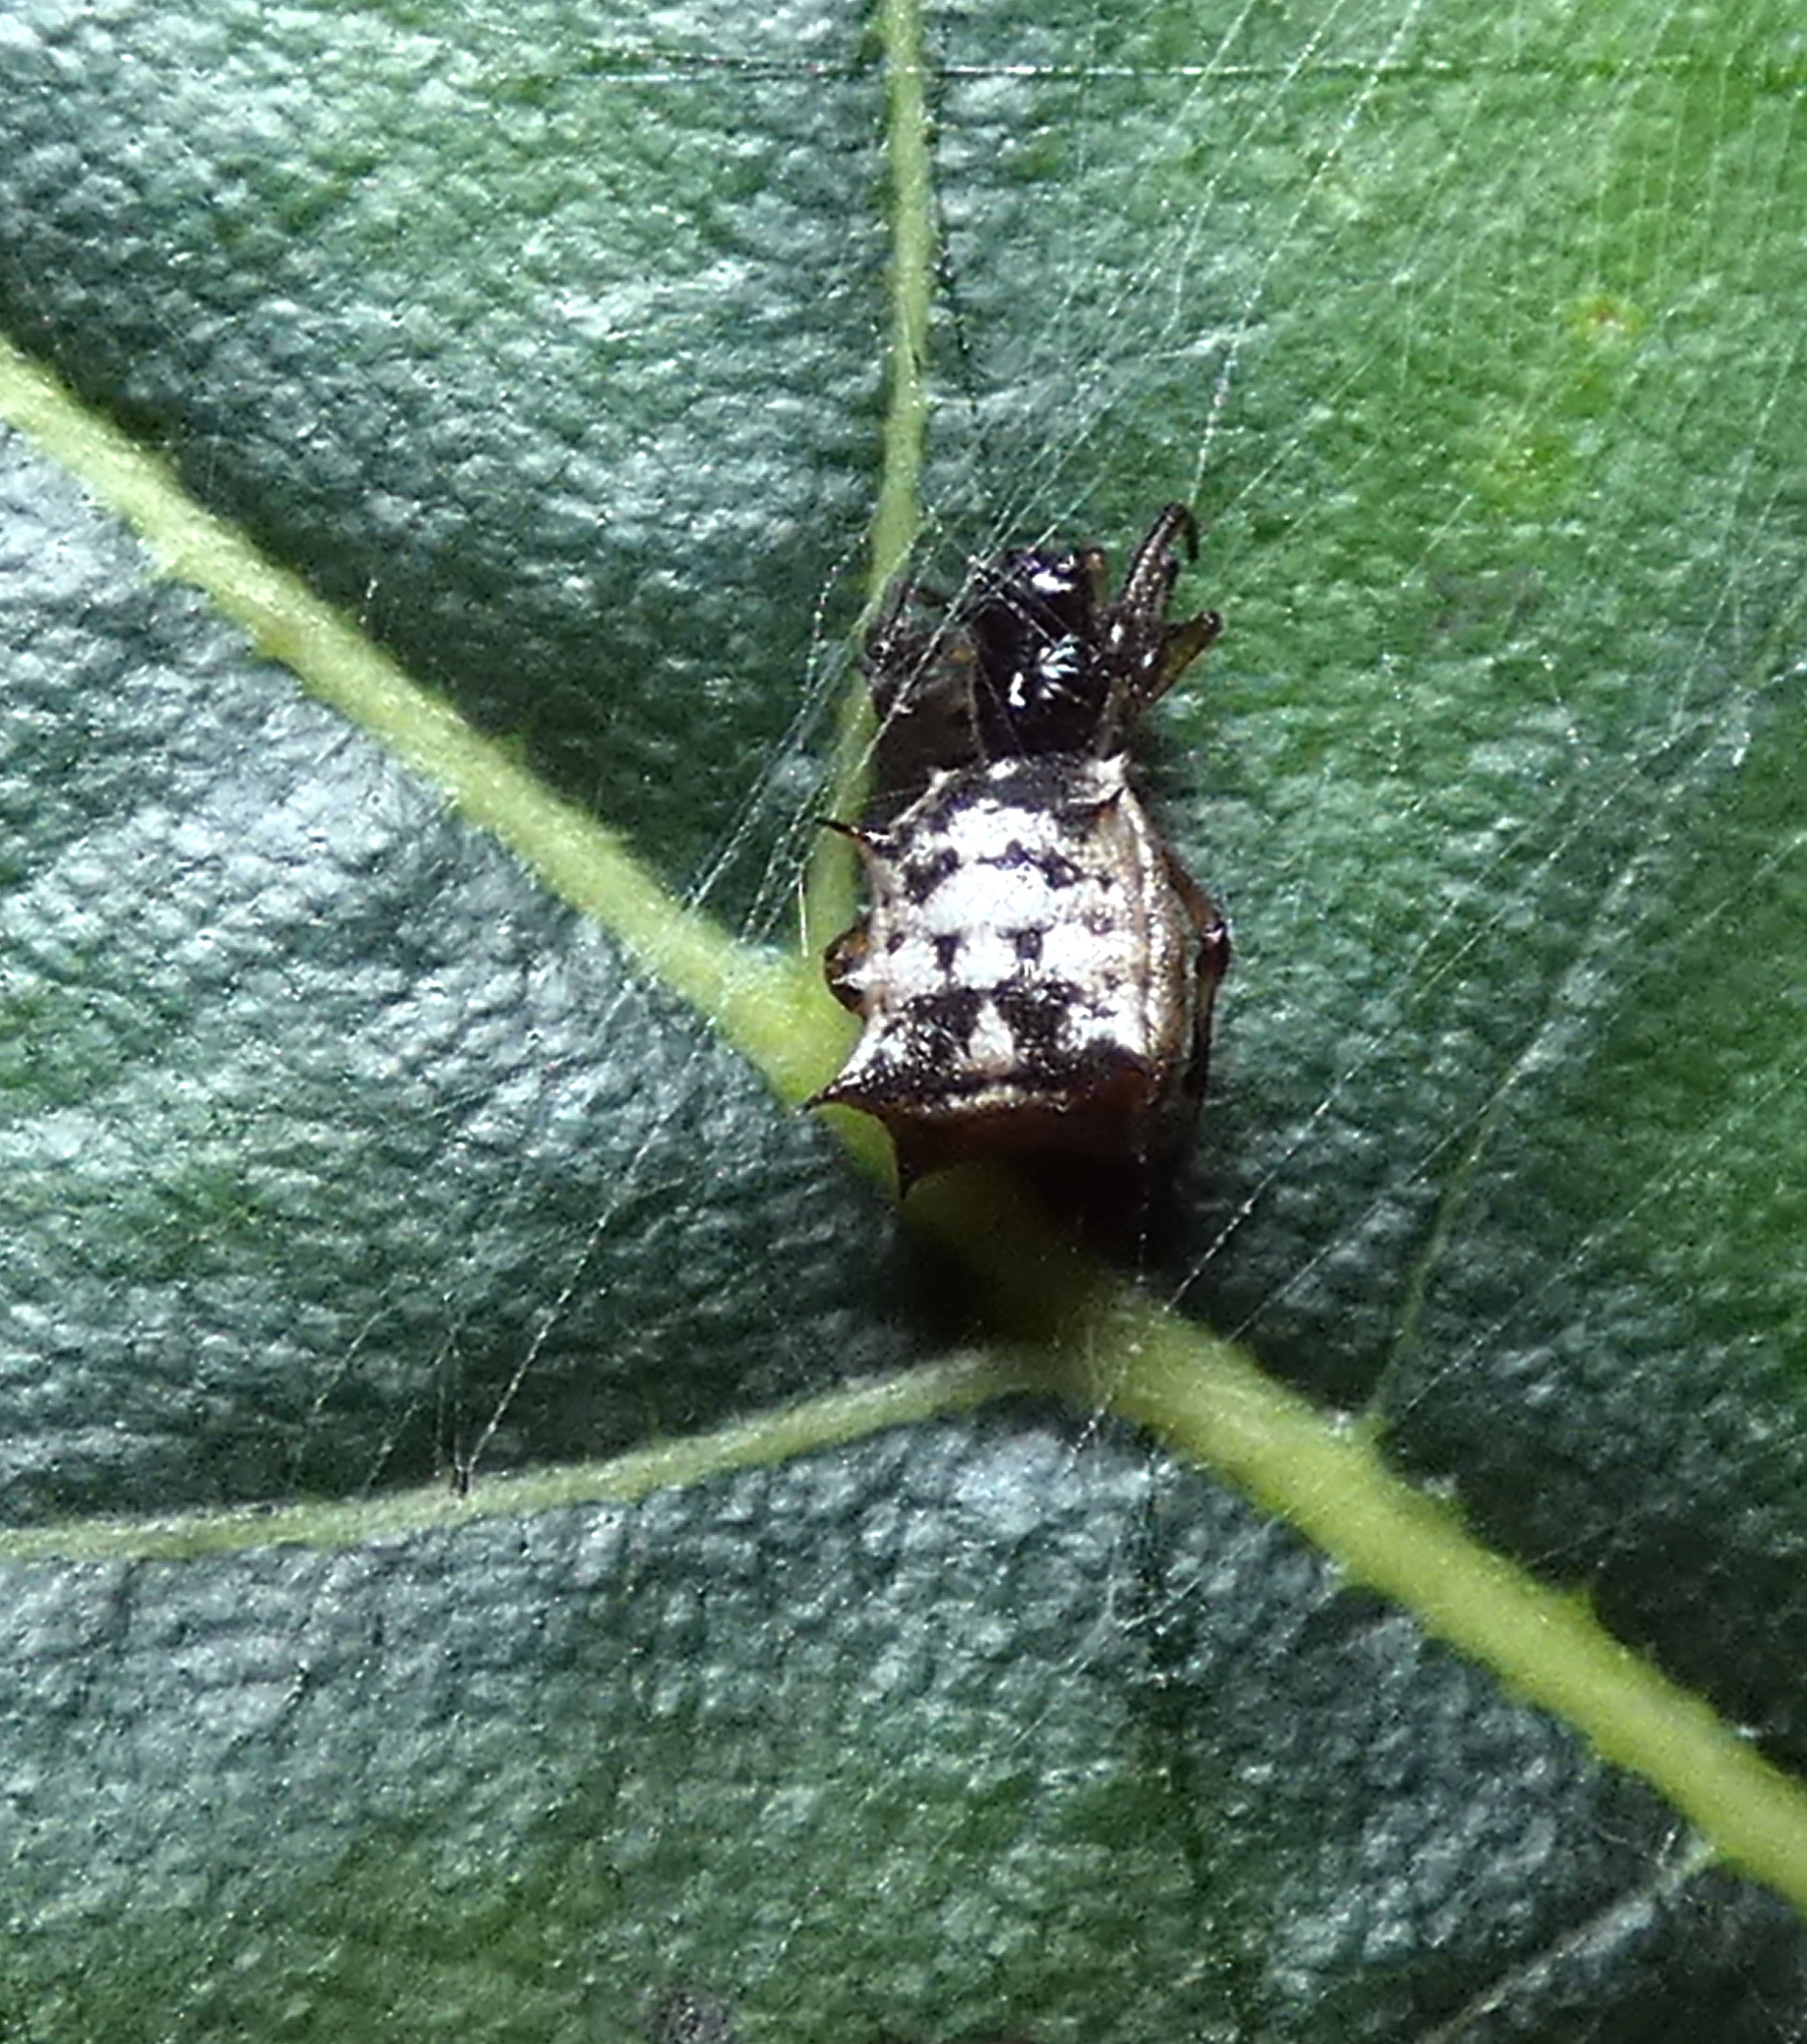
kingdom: Animalia
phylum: Arthropoda
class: Arachnida
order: Araneae
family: Araneidae
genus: Micrathena
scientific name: Micrathena picta
